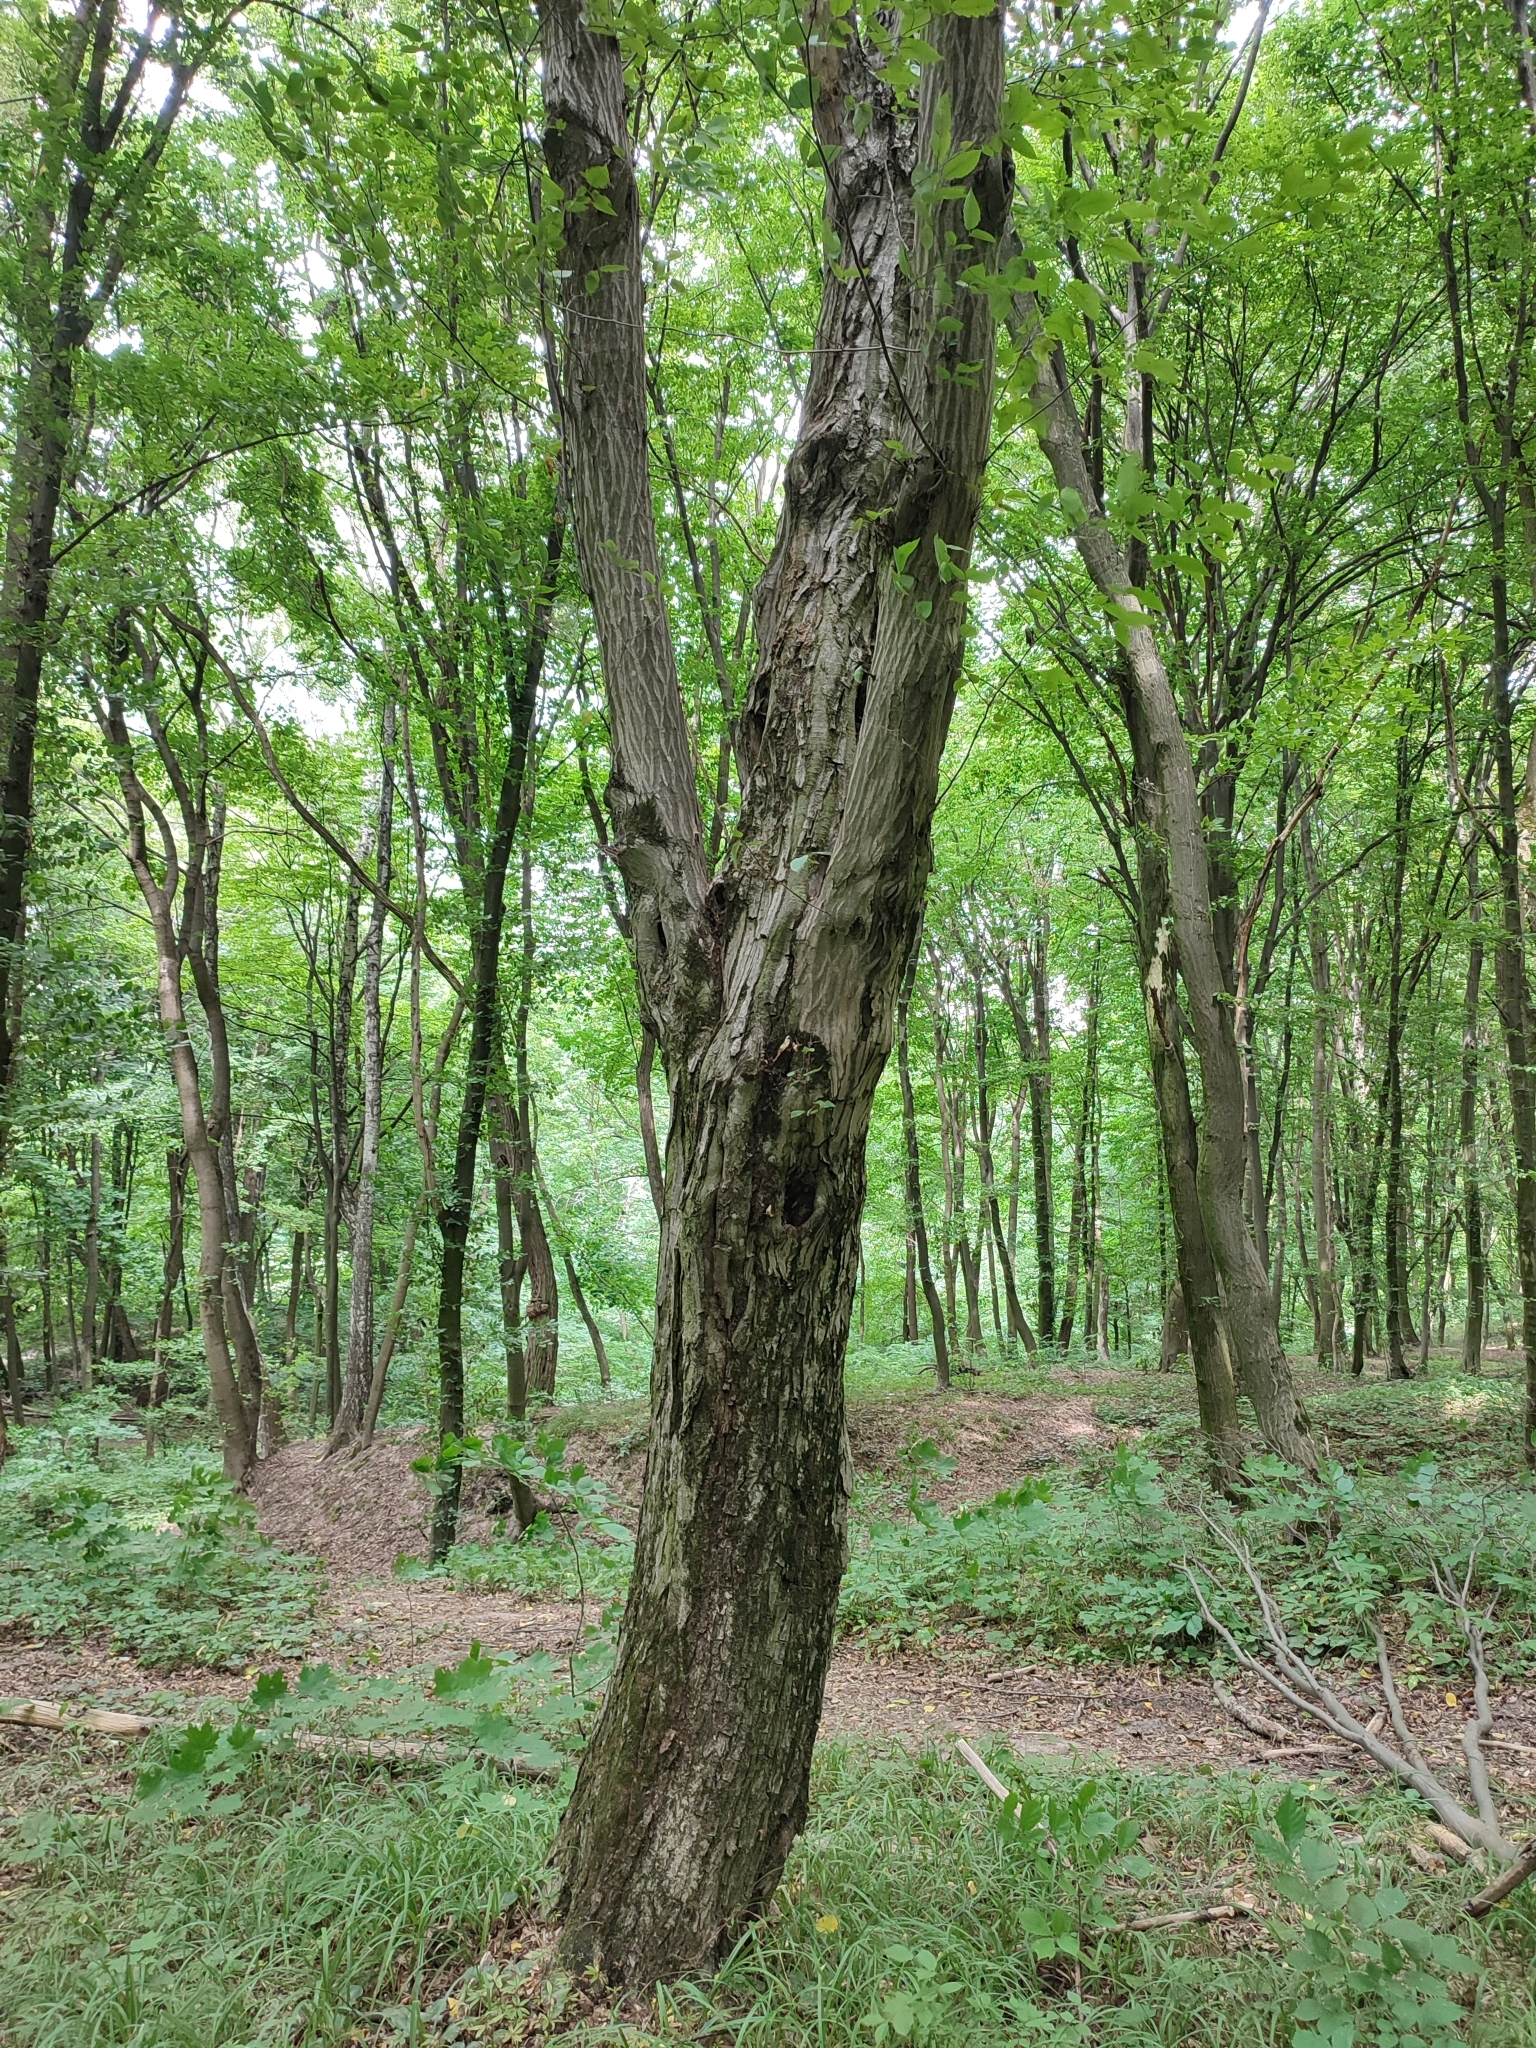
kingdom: Plantae
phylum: Tracheophyta
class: Magnoliopsida
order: Fagales
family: Betulaceae
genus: Carpinus
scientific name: Carpinus betulus
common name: Hornbeam
